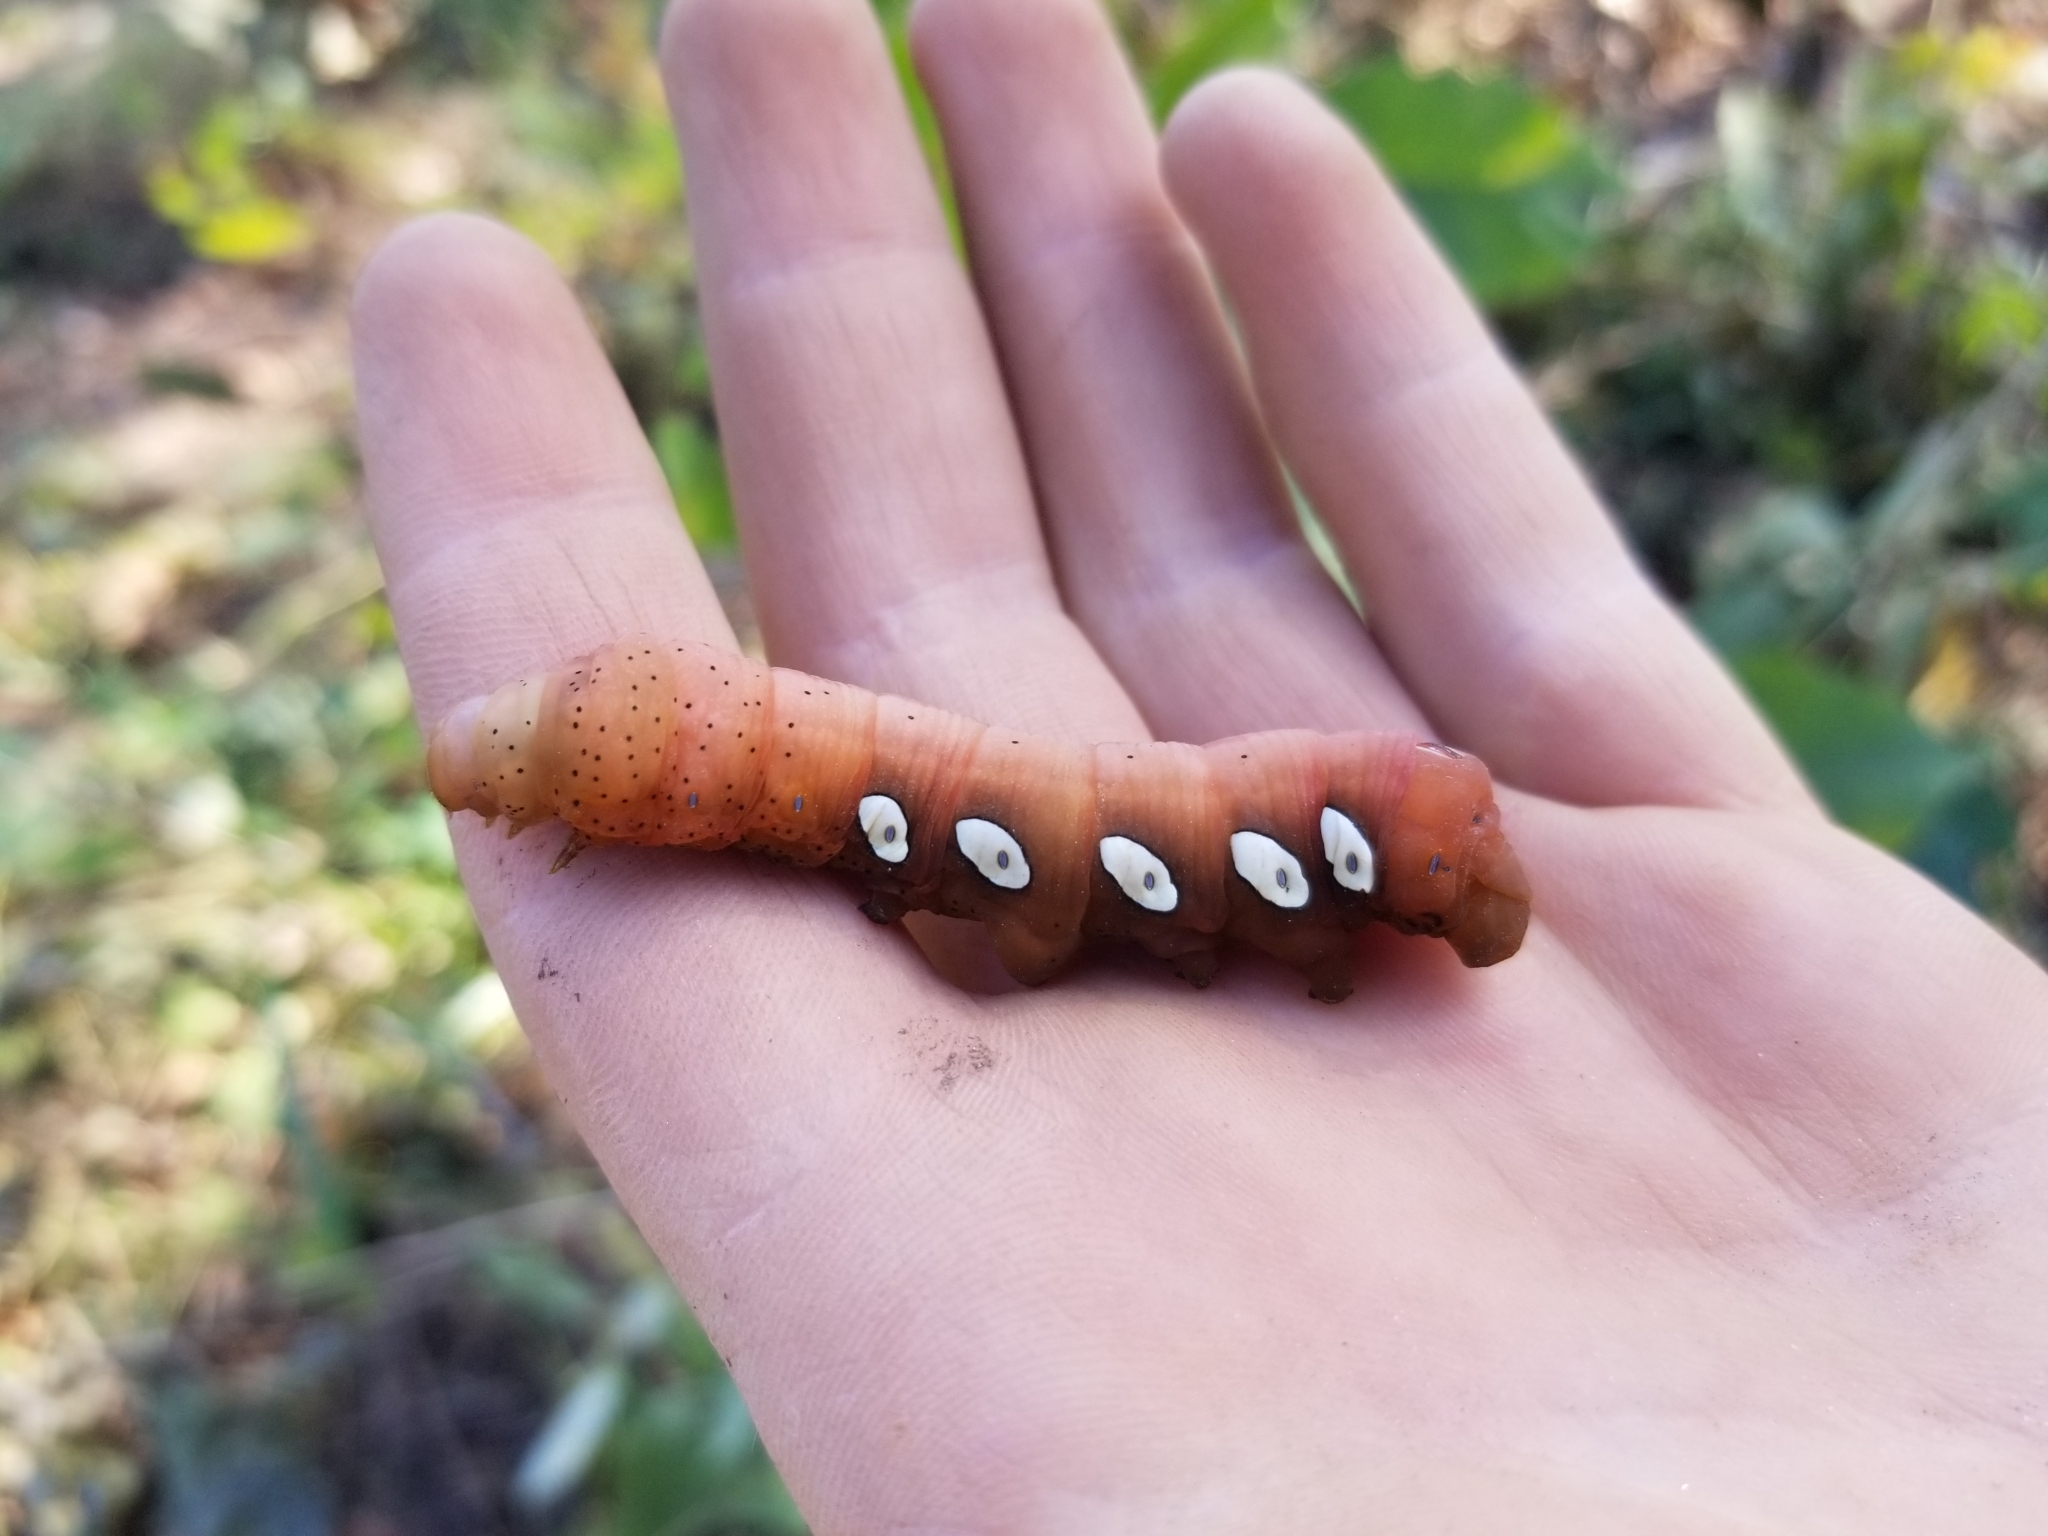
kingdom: Animalia
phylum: Arthropoda
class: Insecta
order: Lepidoptera
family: Sphingidae
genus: Eumorpha
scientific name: Eumorpha pandorus
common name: Pandora sphinx
